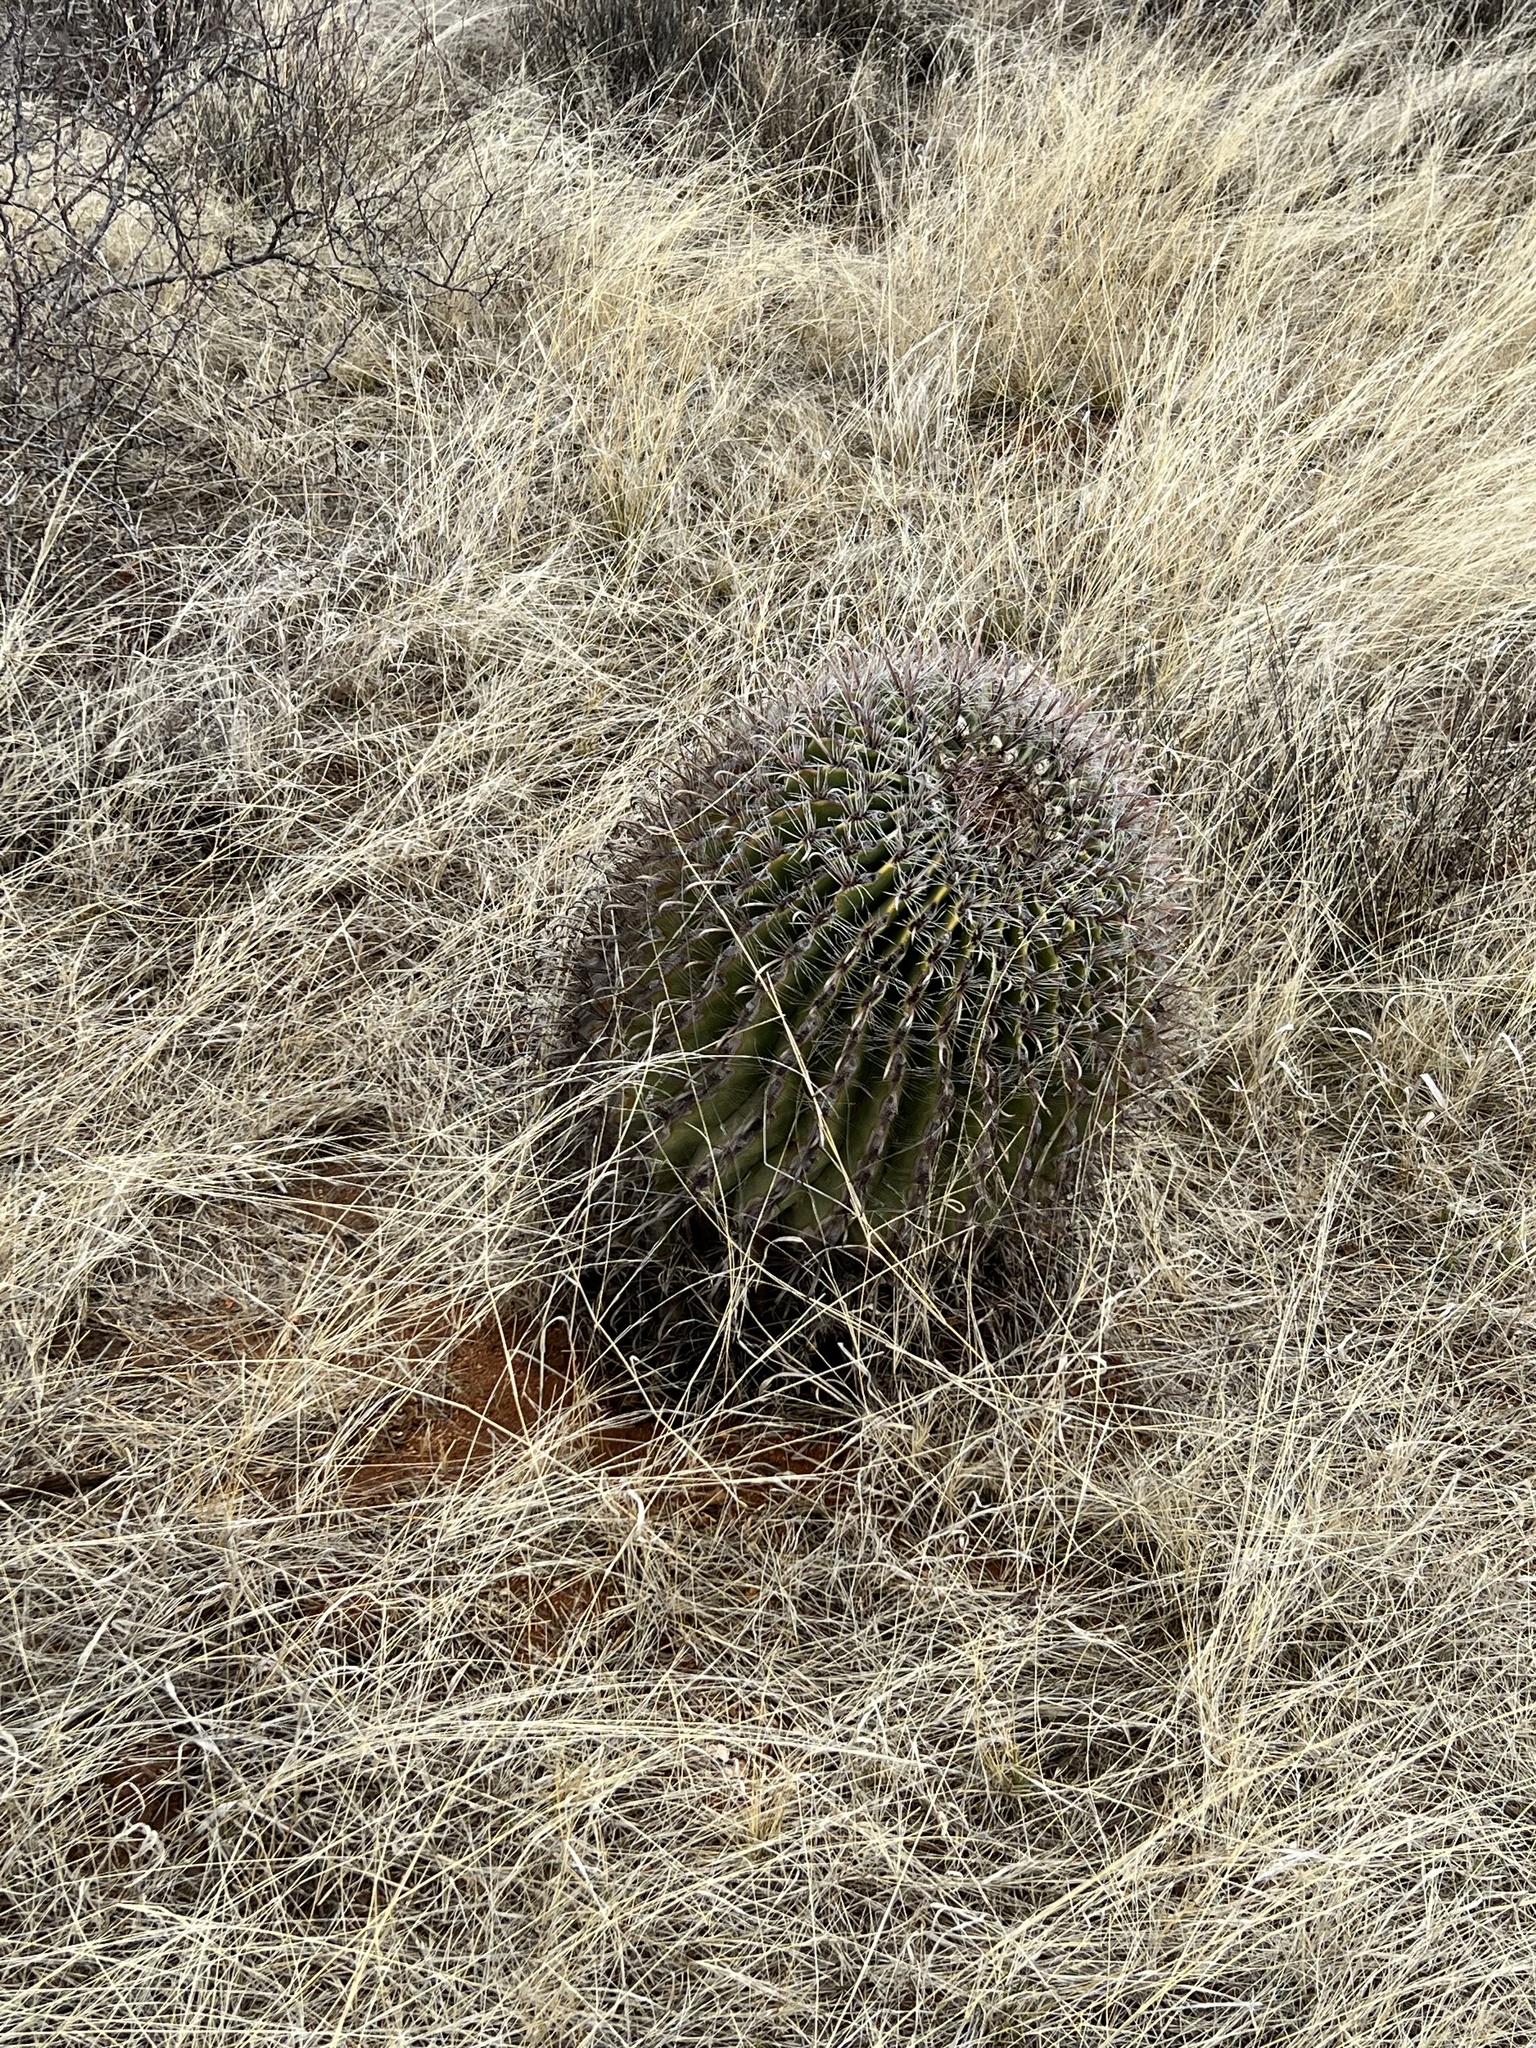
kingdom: Plantae
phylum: Tracheophyta
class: Magnoliopsida
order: Caryophyllales
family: Cactaceae
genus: Ferocactus
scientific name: Ferocactus wislizeni
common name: Candy barrel cactus
